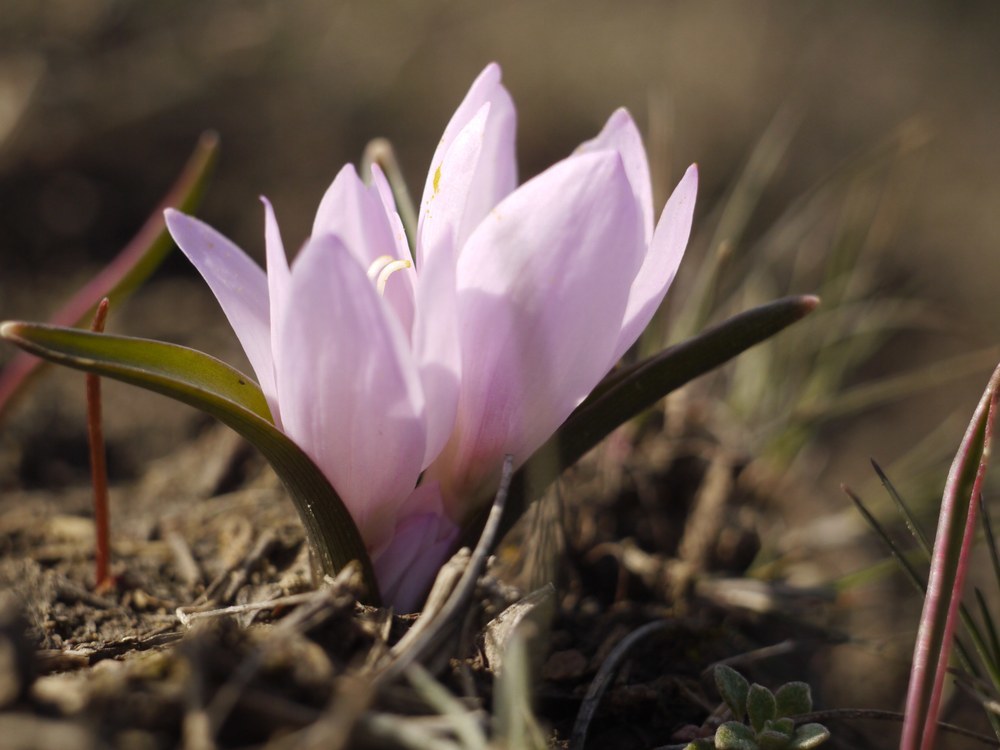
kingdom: Plantae
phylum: Tracheophyta
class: Liliopsida
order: Liliales
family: Colchicaceae
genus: Colchicum
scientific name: Colchicum bulbocodium
